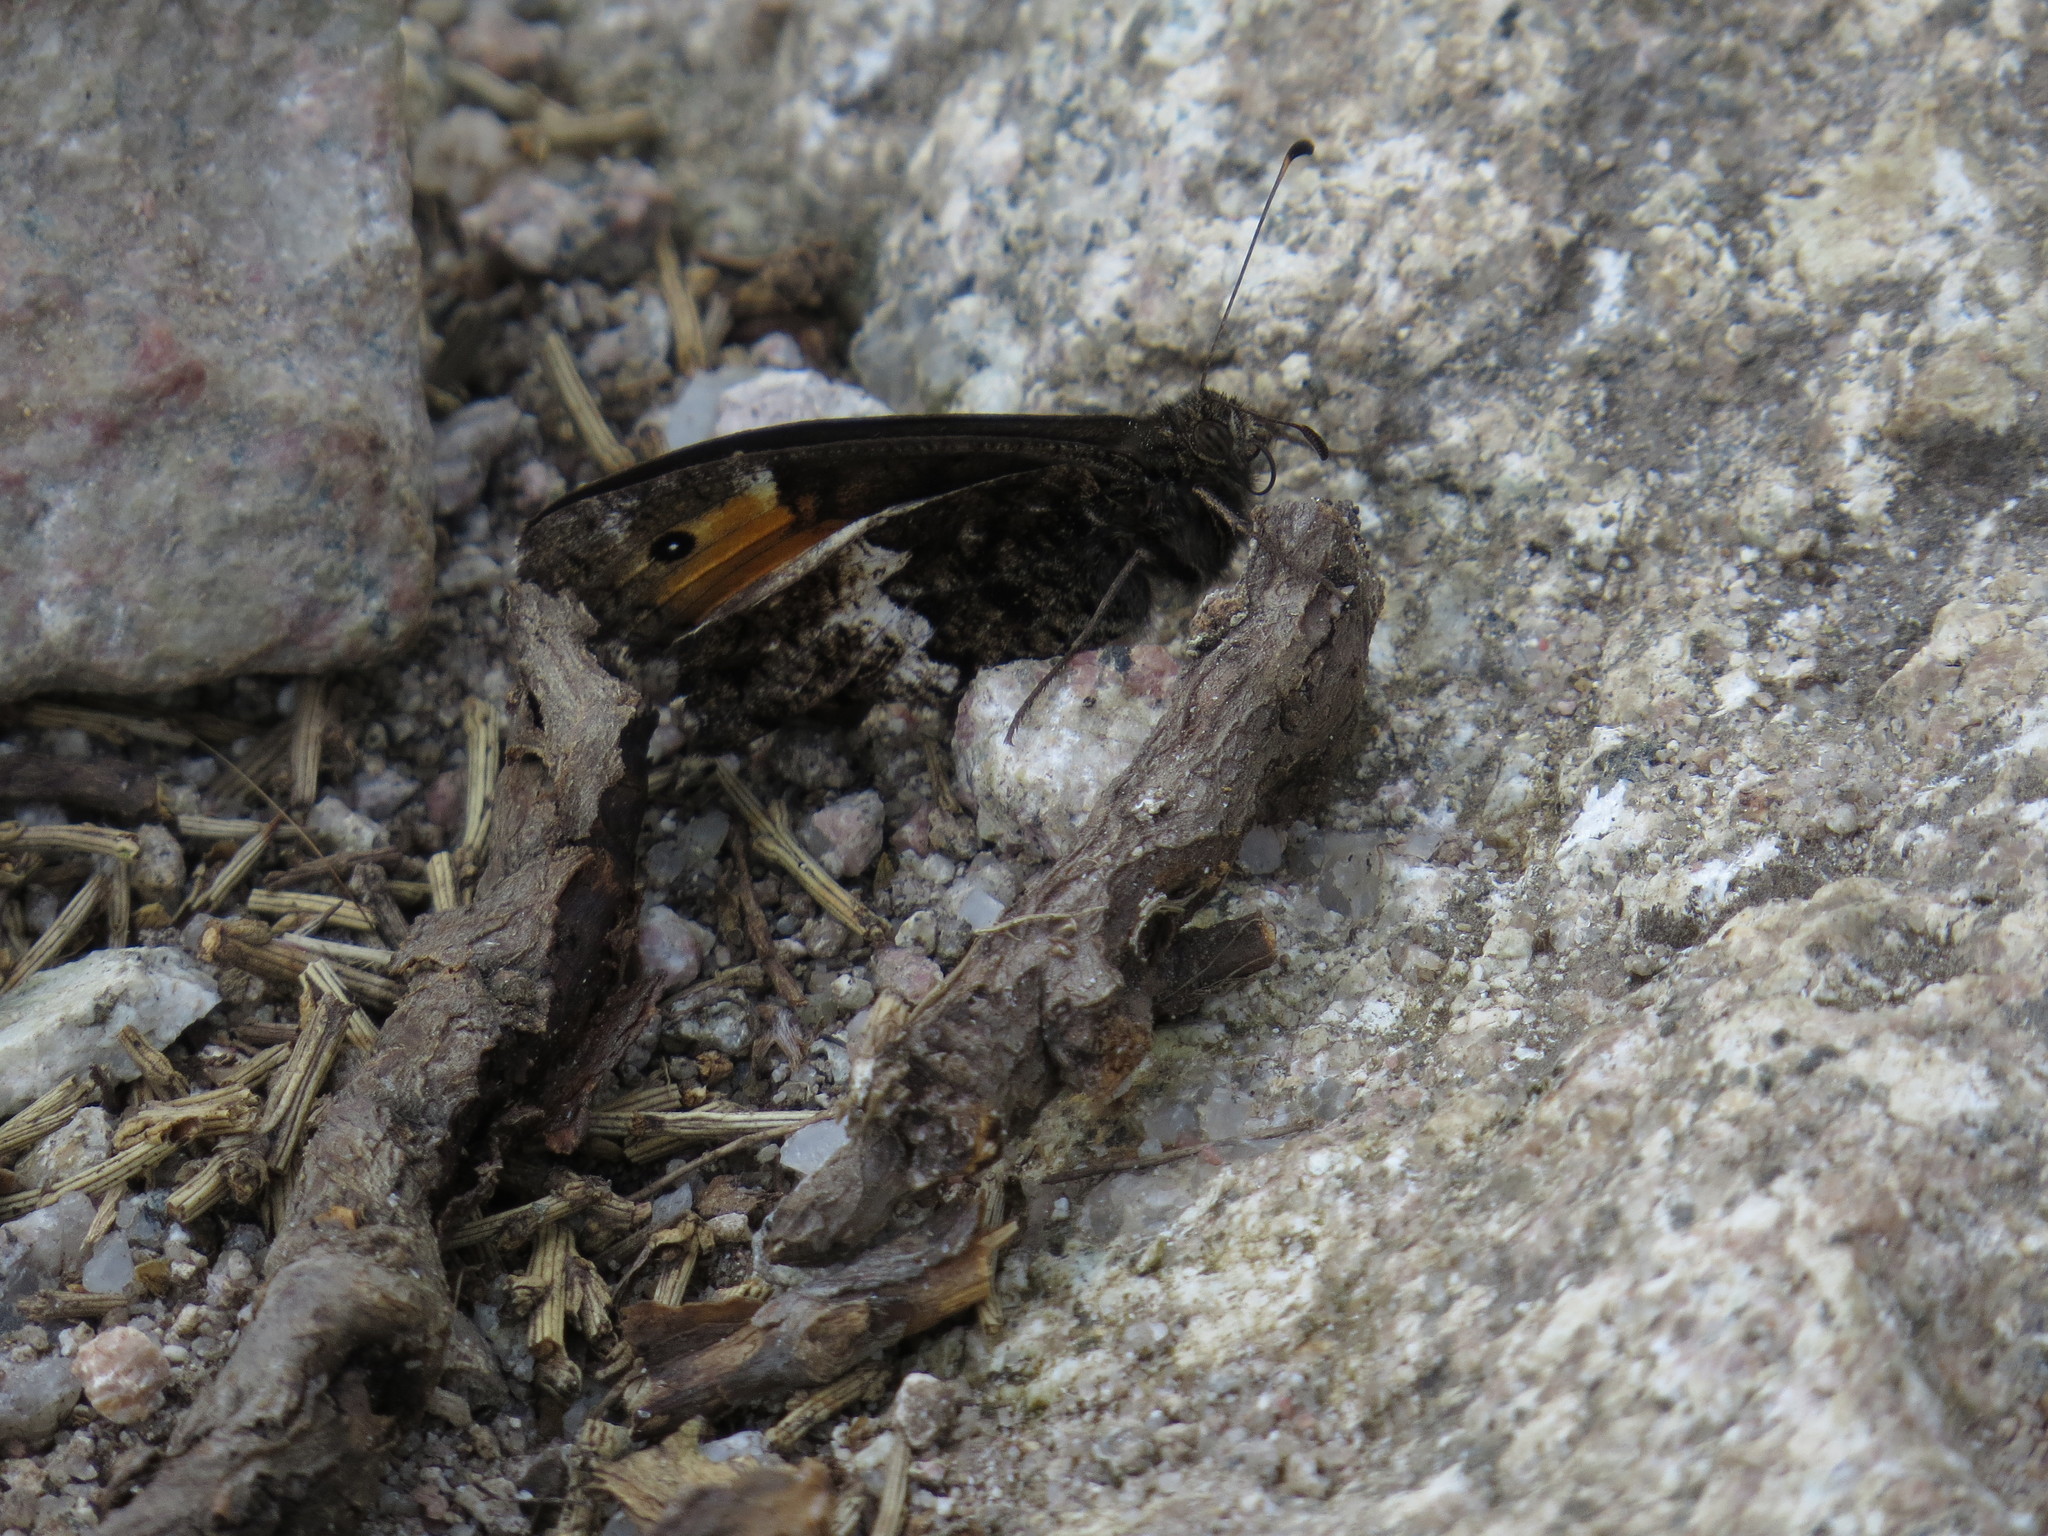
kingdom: Animalia
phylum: Arthropoda
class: Insecta
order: Lepidoptera
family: Nymphalidae
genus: Hipparchia
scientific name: Hipparchia neomiris
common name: Corsican grayling
